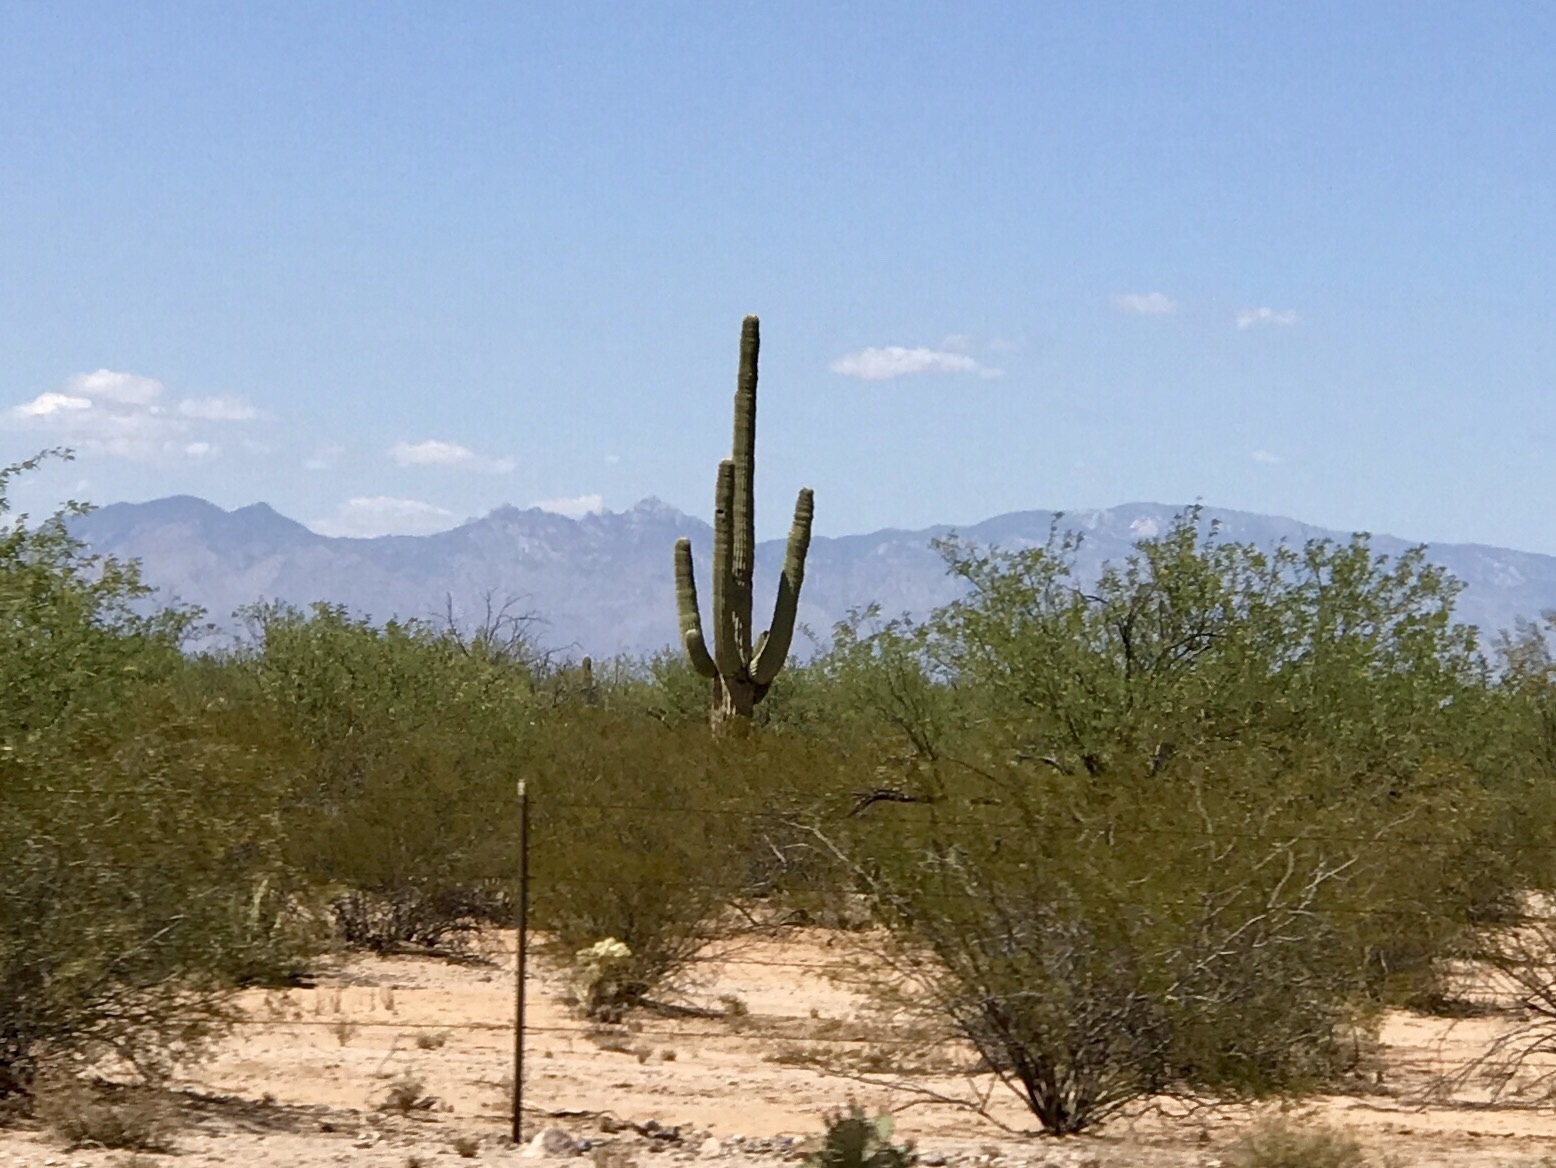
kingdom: Plantae
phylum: Tracheophyta
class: Magnoliopsida
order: Caryophyllales
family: Cactaceae
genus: Carnegiea
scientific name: Carnegiea gigantea
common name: Saguaro
